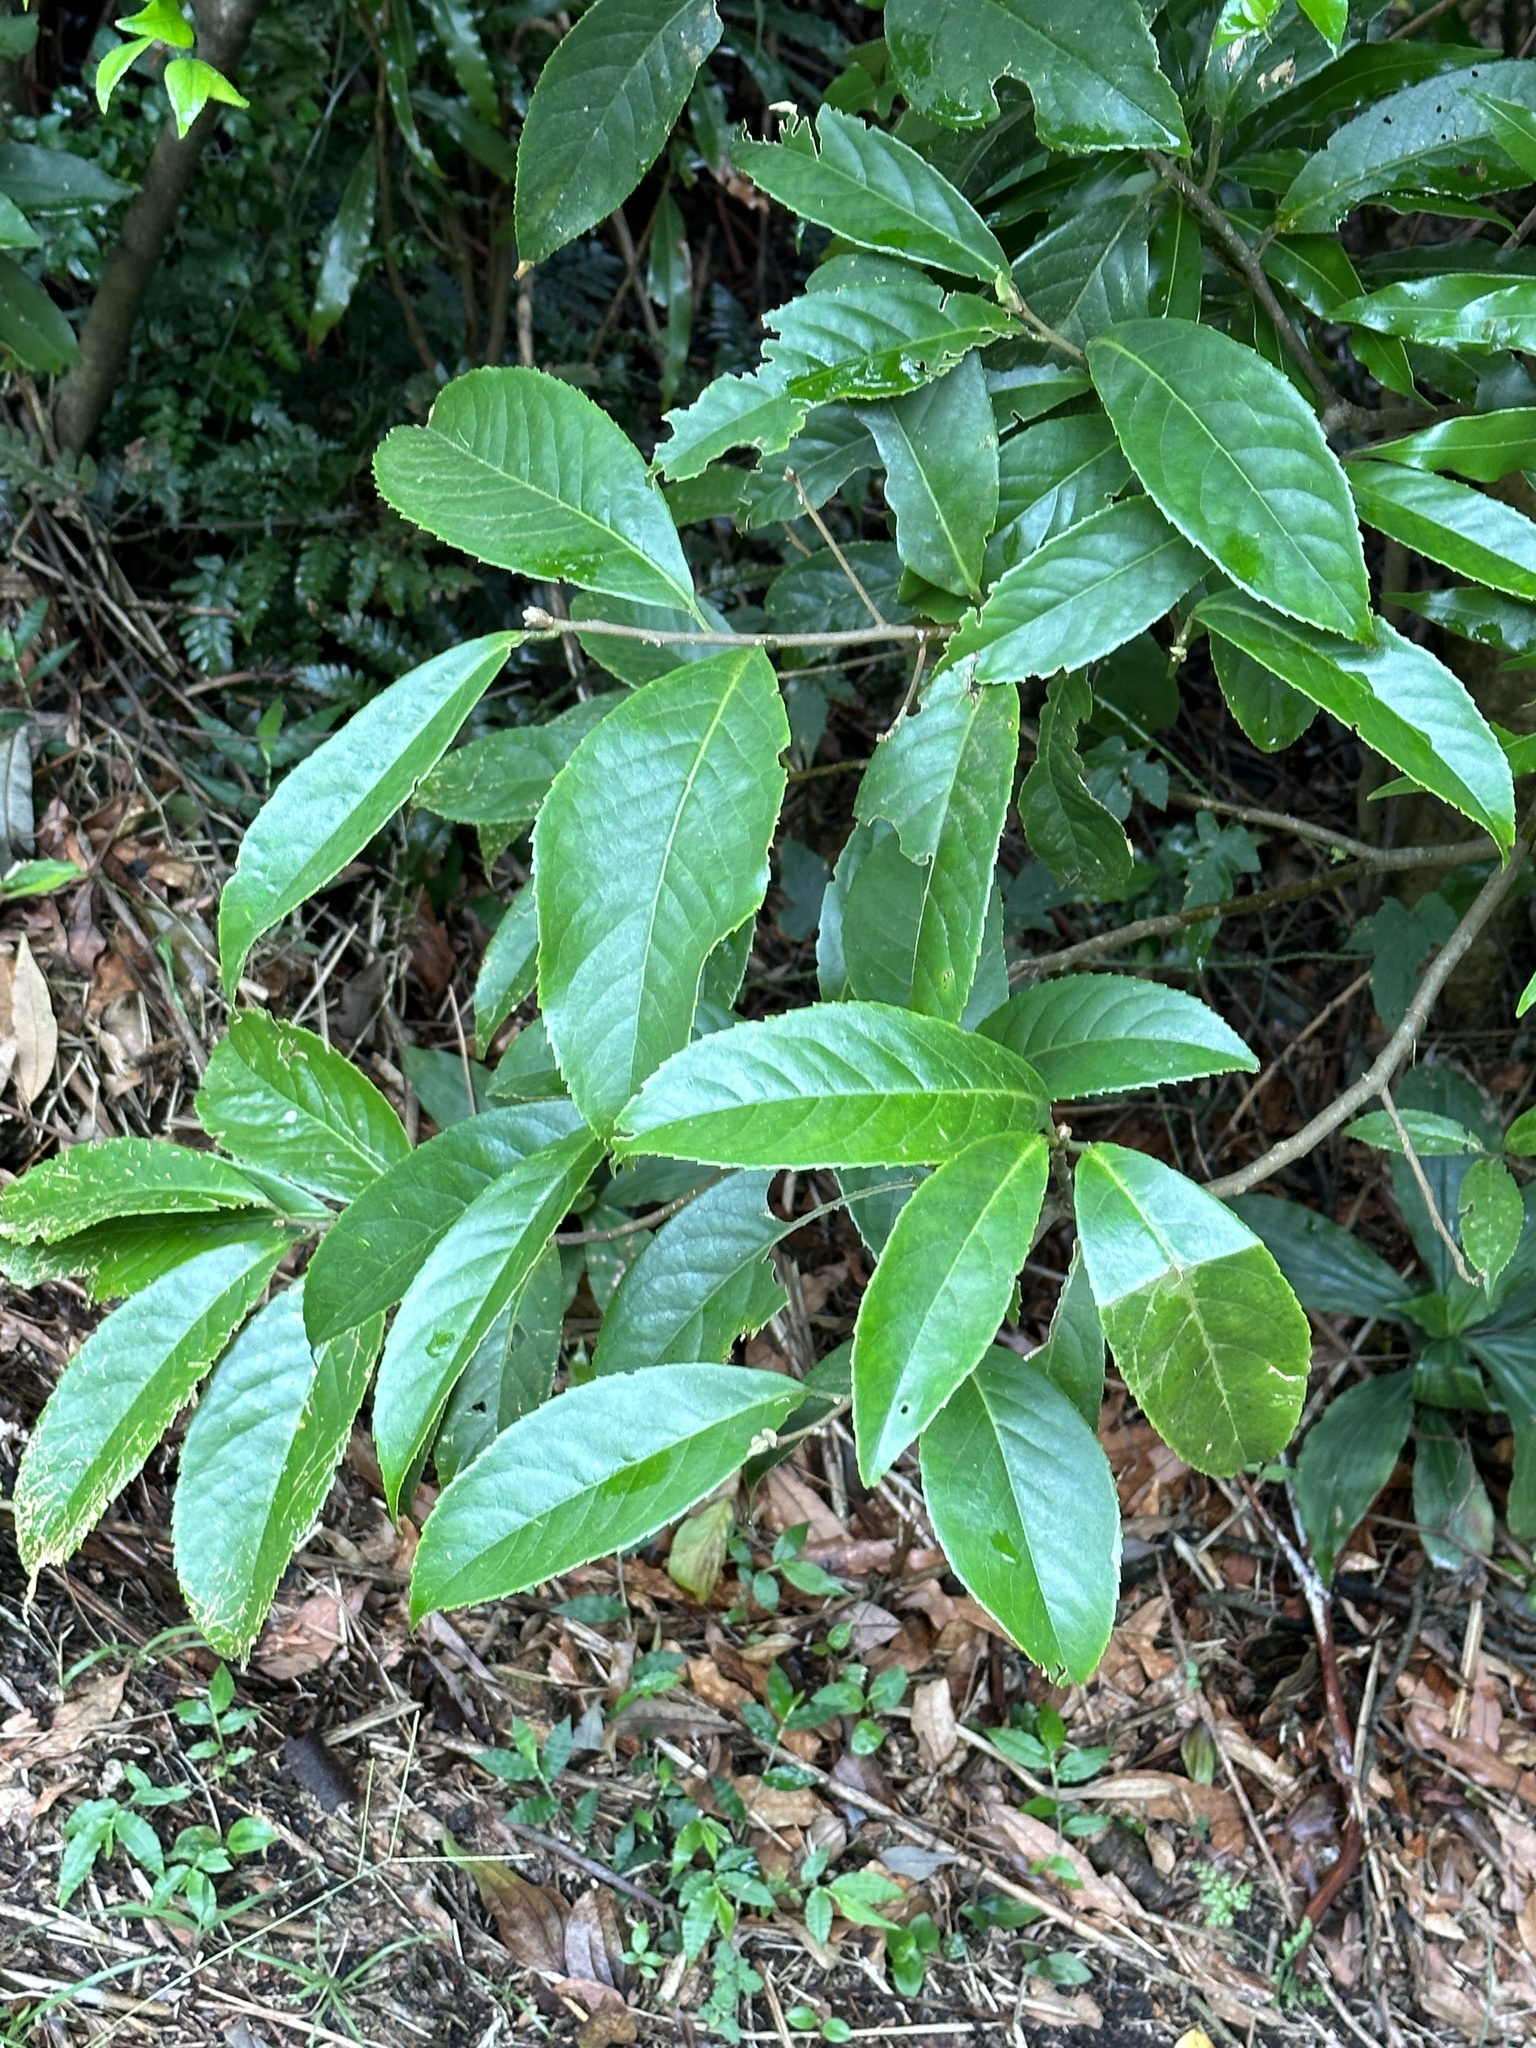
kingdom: Plantae
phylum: Tracheophyta
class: Magnoliopsida
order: Ericales
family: Symplocaceae
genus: Symplocos
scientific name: Symplocos acuminata
